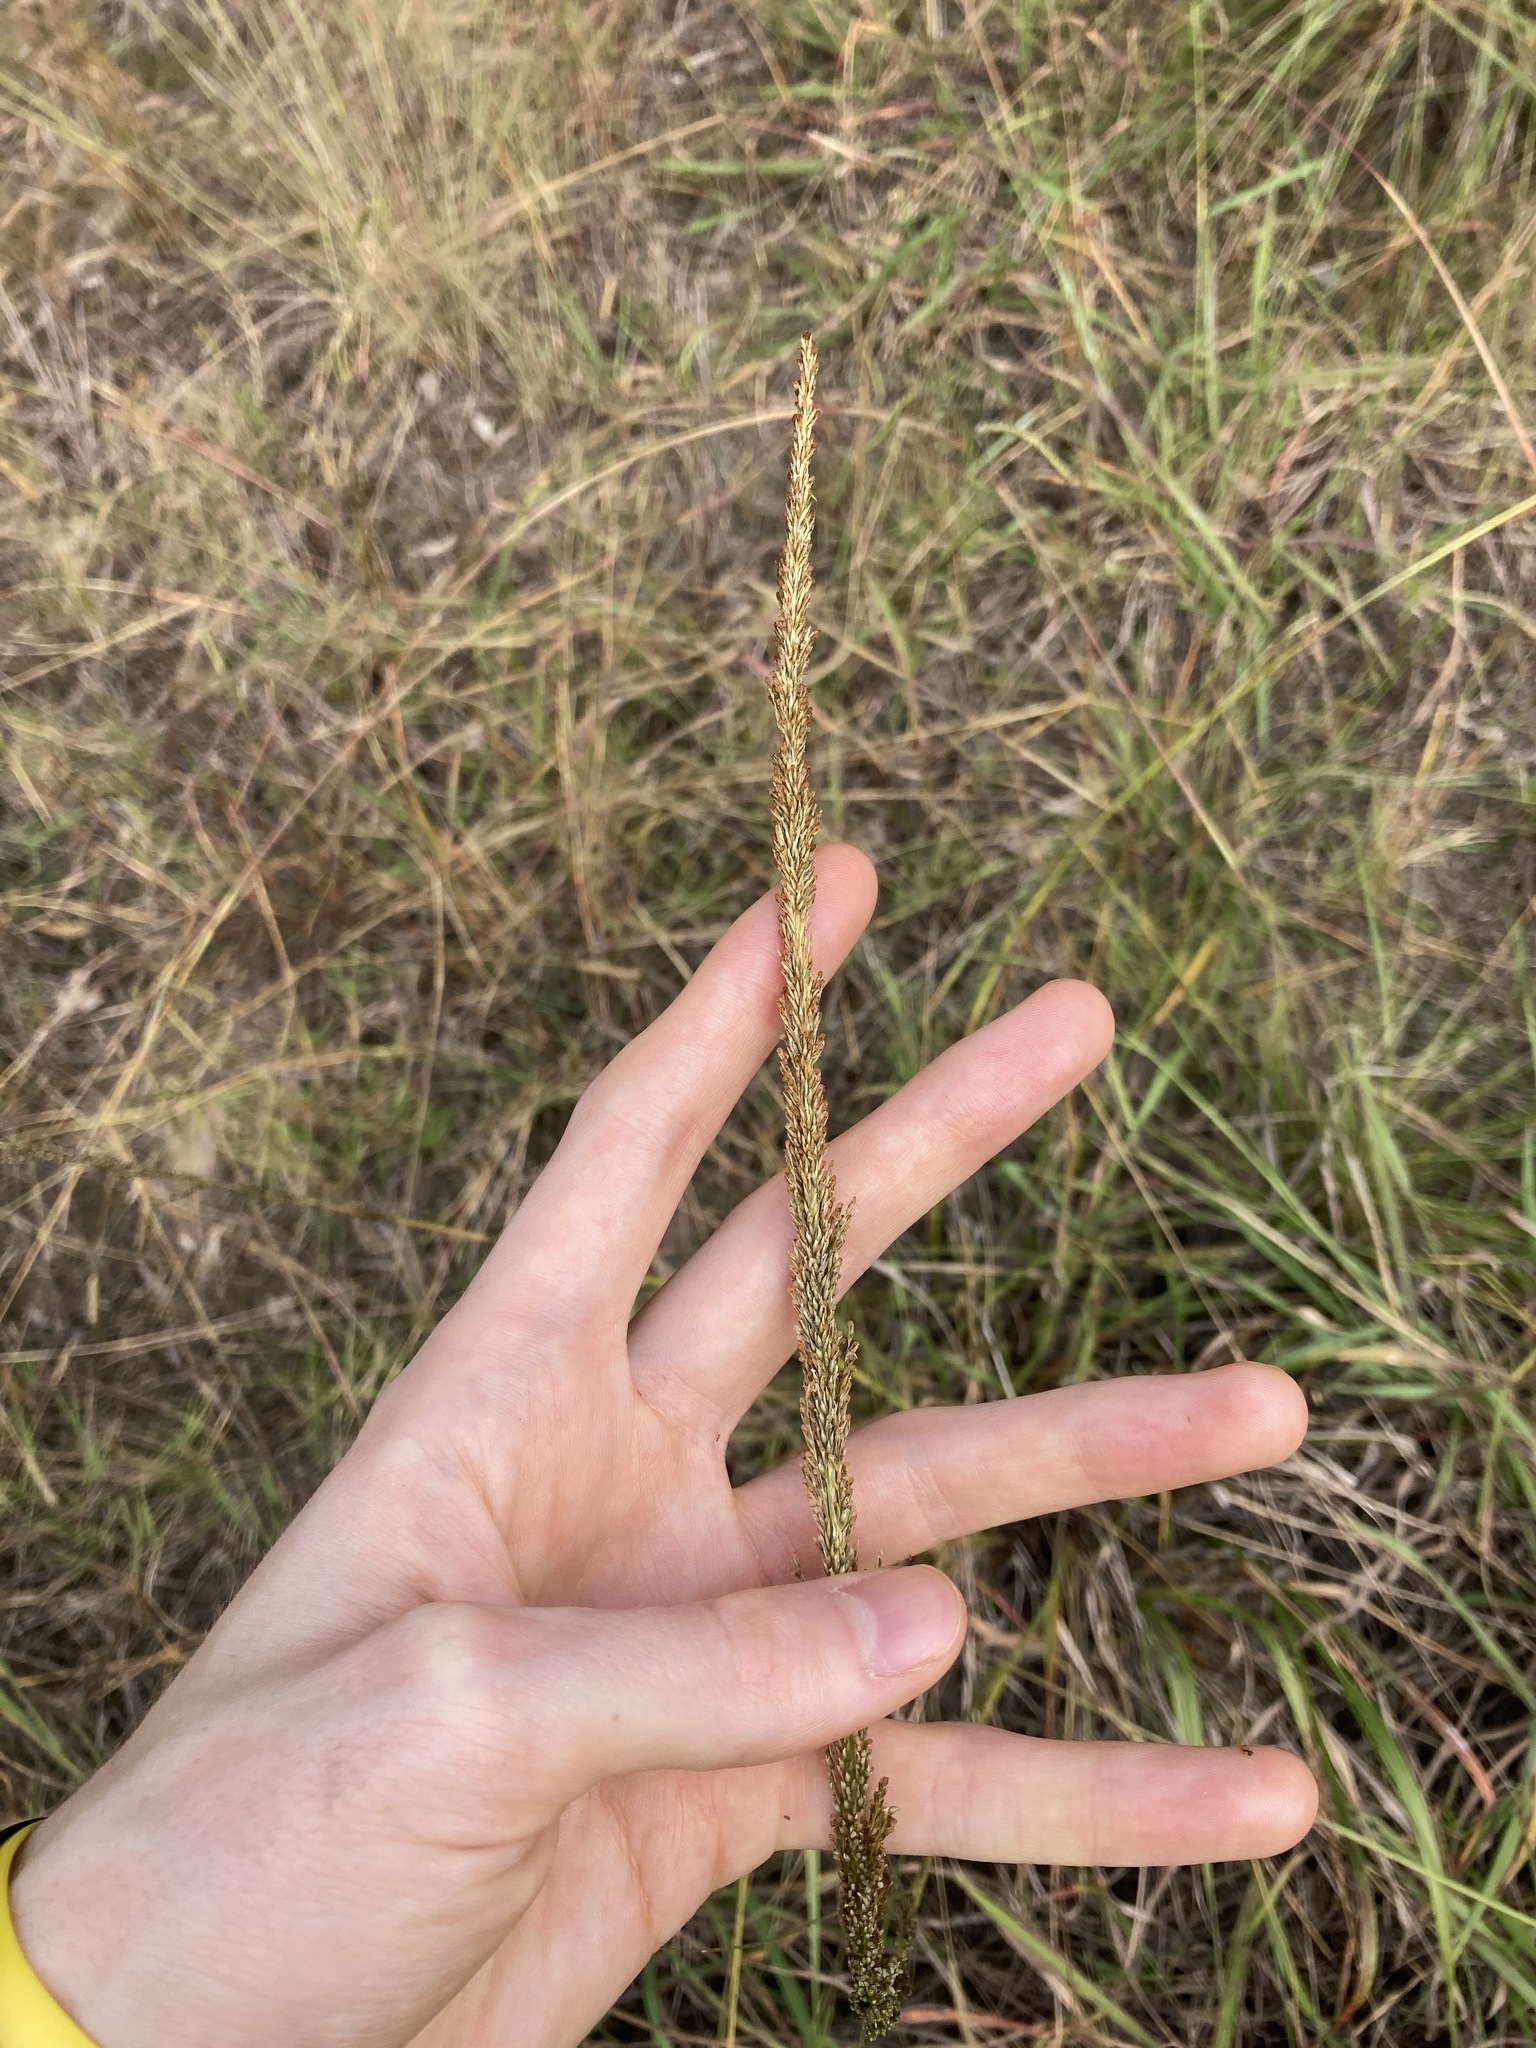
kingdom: Plantae
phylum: Tracheophyta
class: Liliopsida
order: Poales
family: Poaceae
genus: Sporobolus
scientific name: Sporobolus africanus
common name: African dropseed
